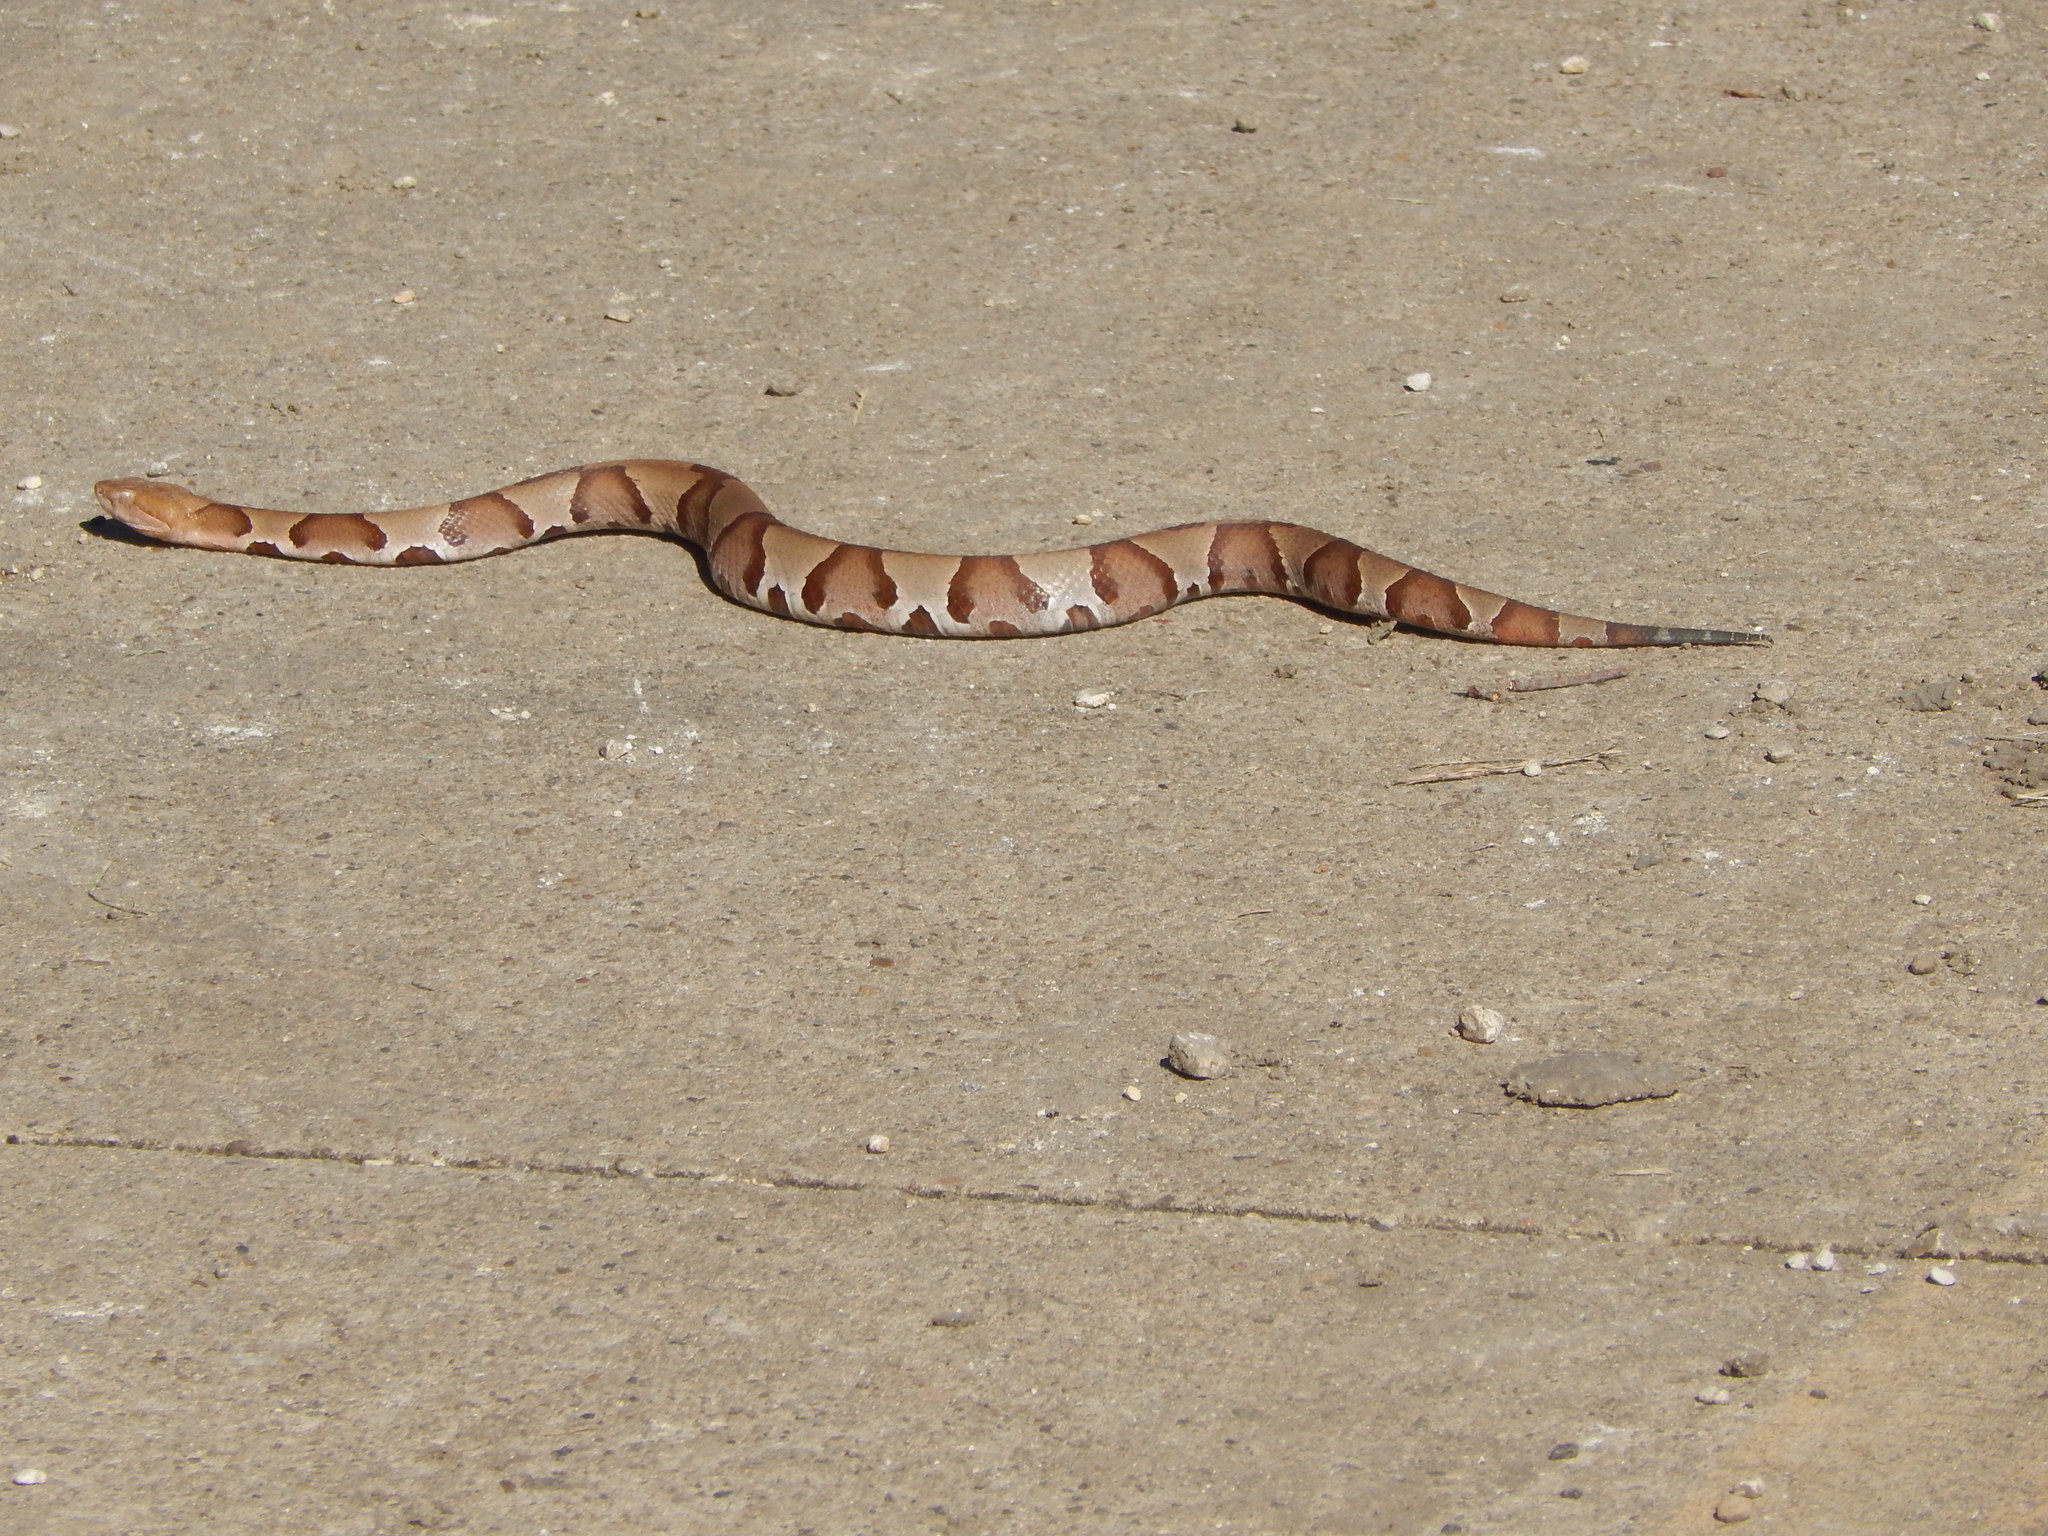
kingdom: Animalia
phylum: Chordata
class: Squamata
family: Viperidae
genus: Agkistrodon
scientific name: Agkistrodon laticinctus
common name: Broad-banded copperhead
